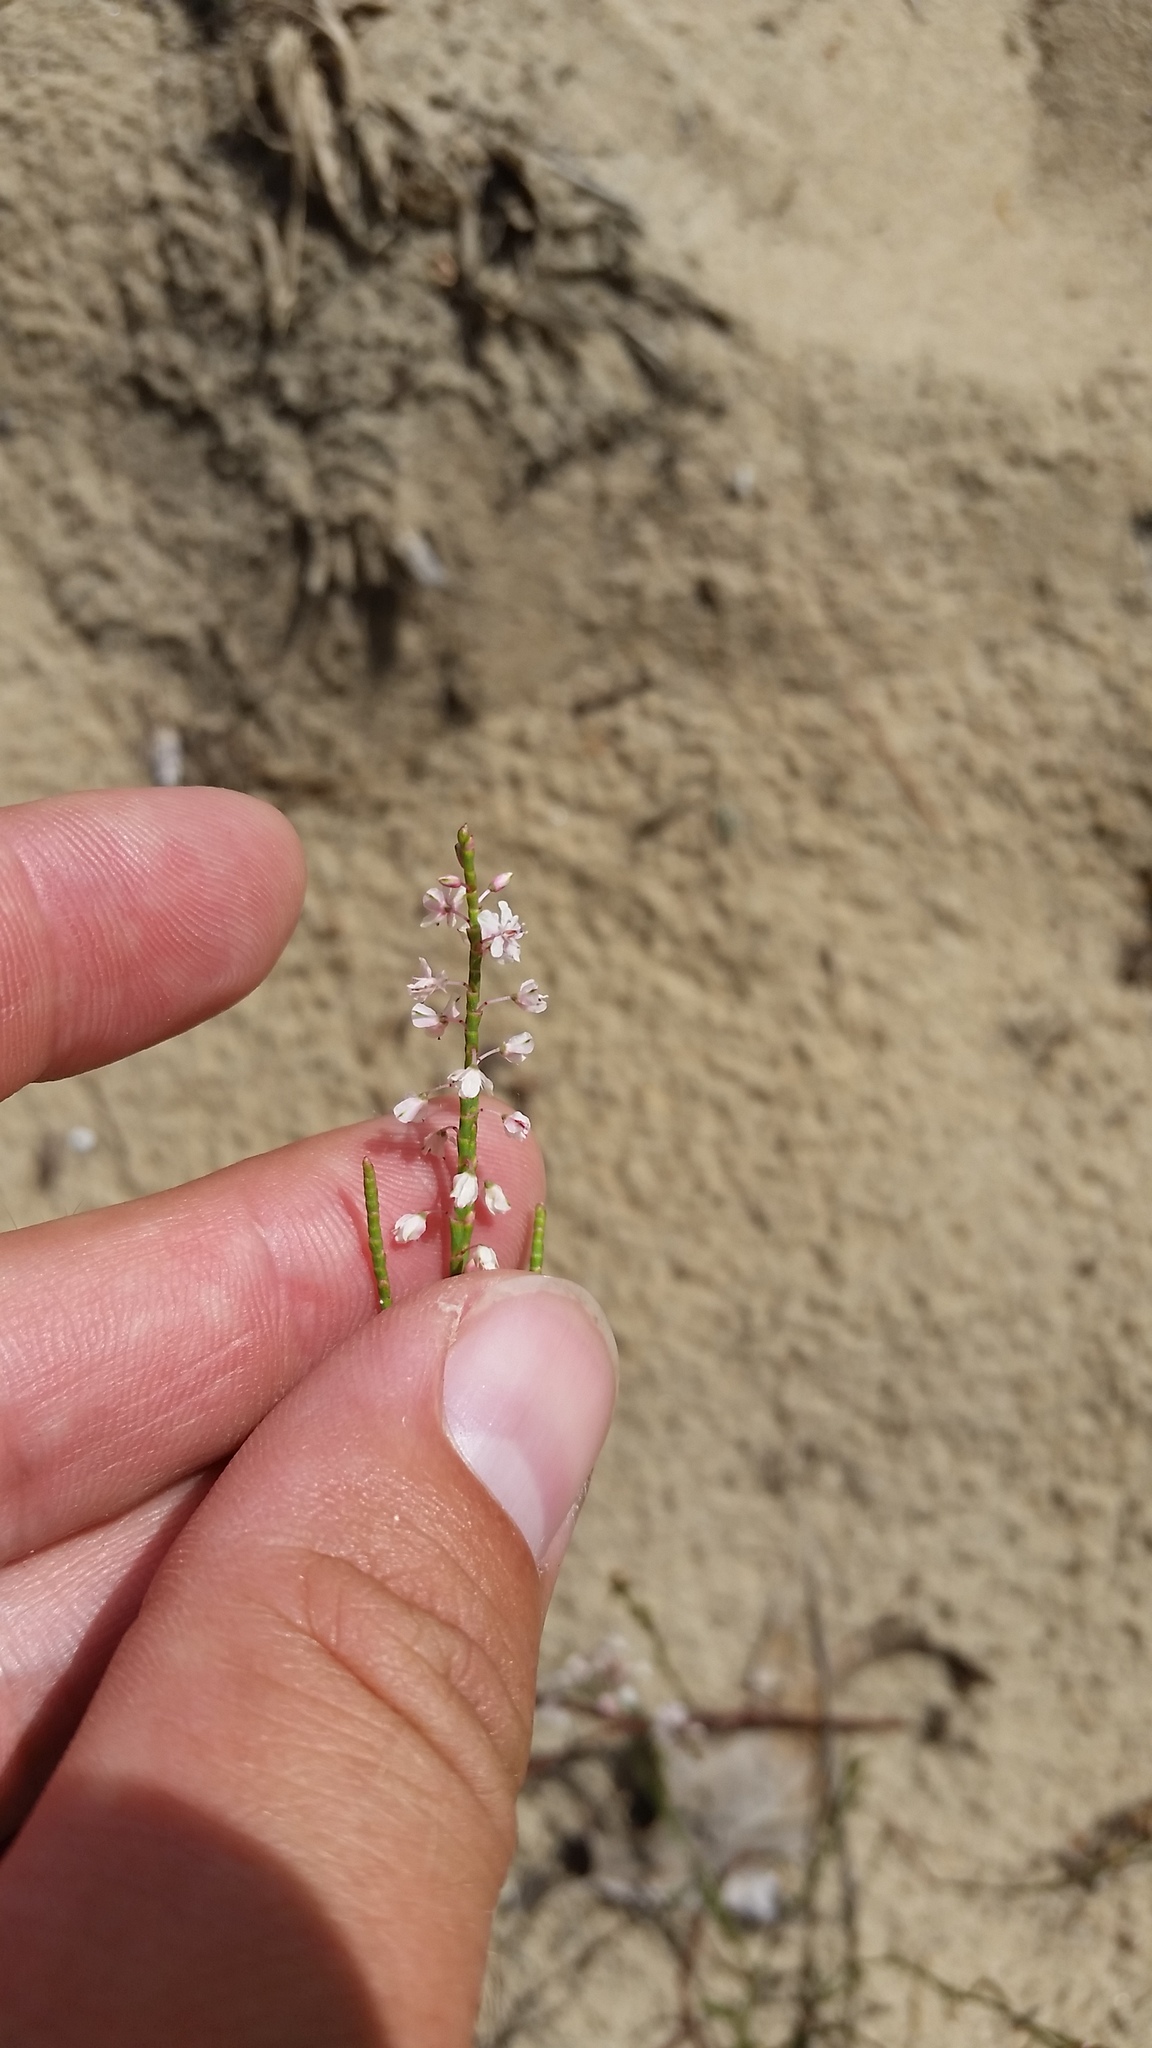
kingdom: Plantae
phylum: Tracheophyta
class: Magnoliopsida
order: Caryophyllales
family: Polygonaceae
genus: Polygonella
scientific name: Polygonella articulata
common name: Coastal jointweed
